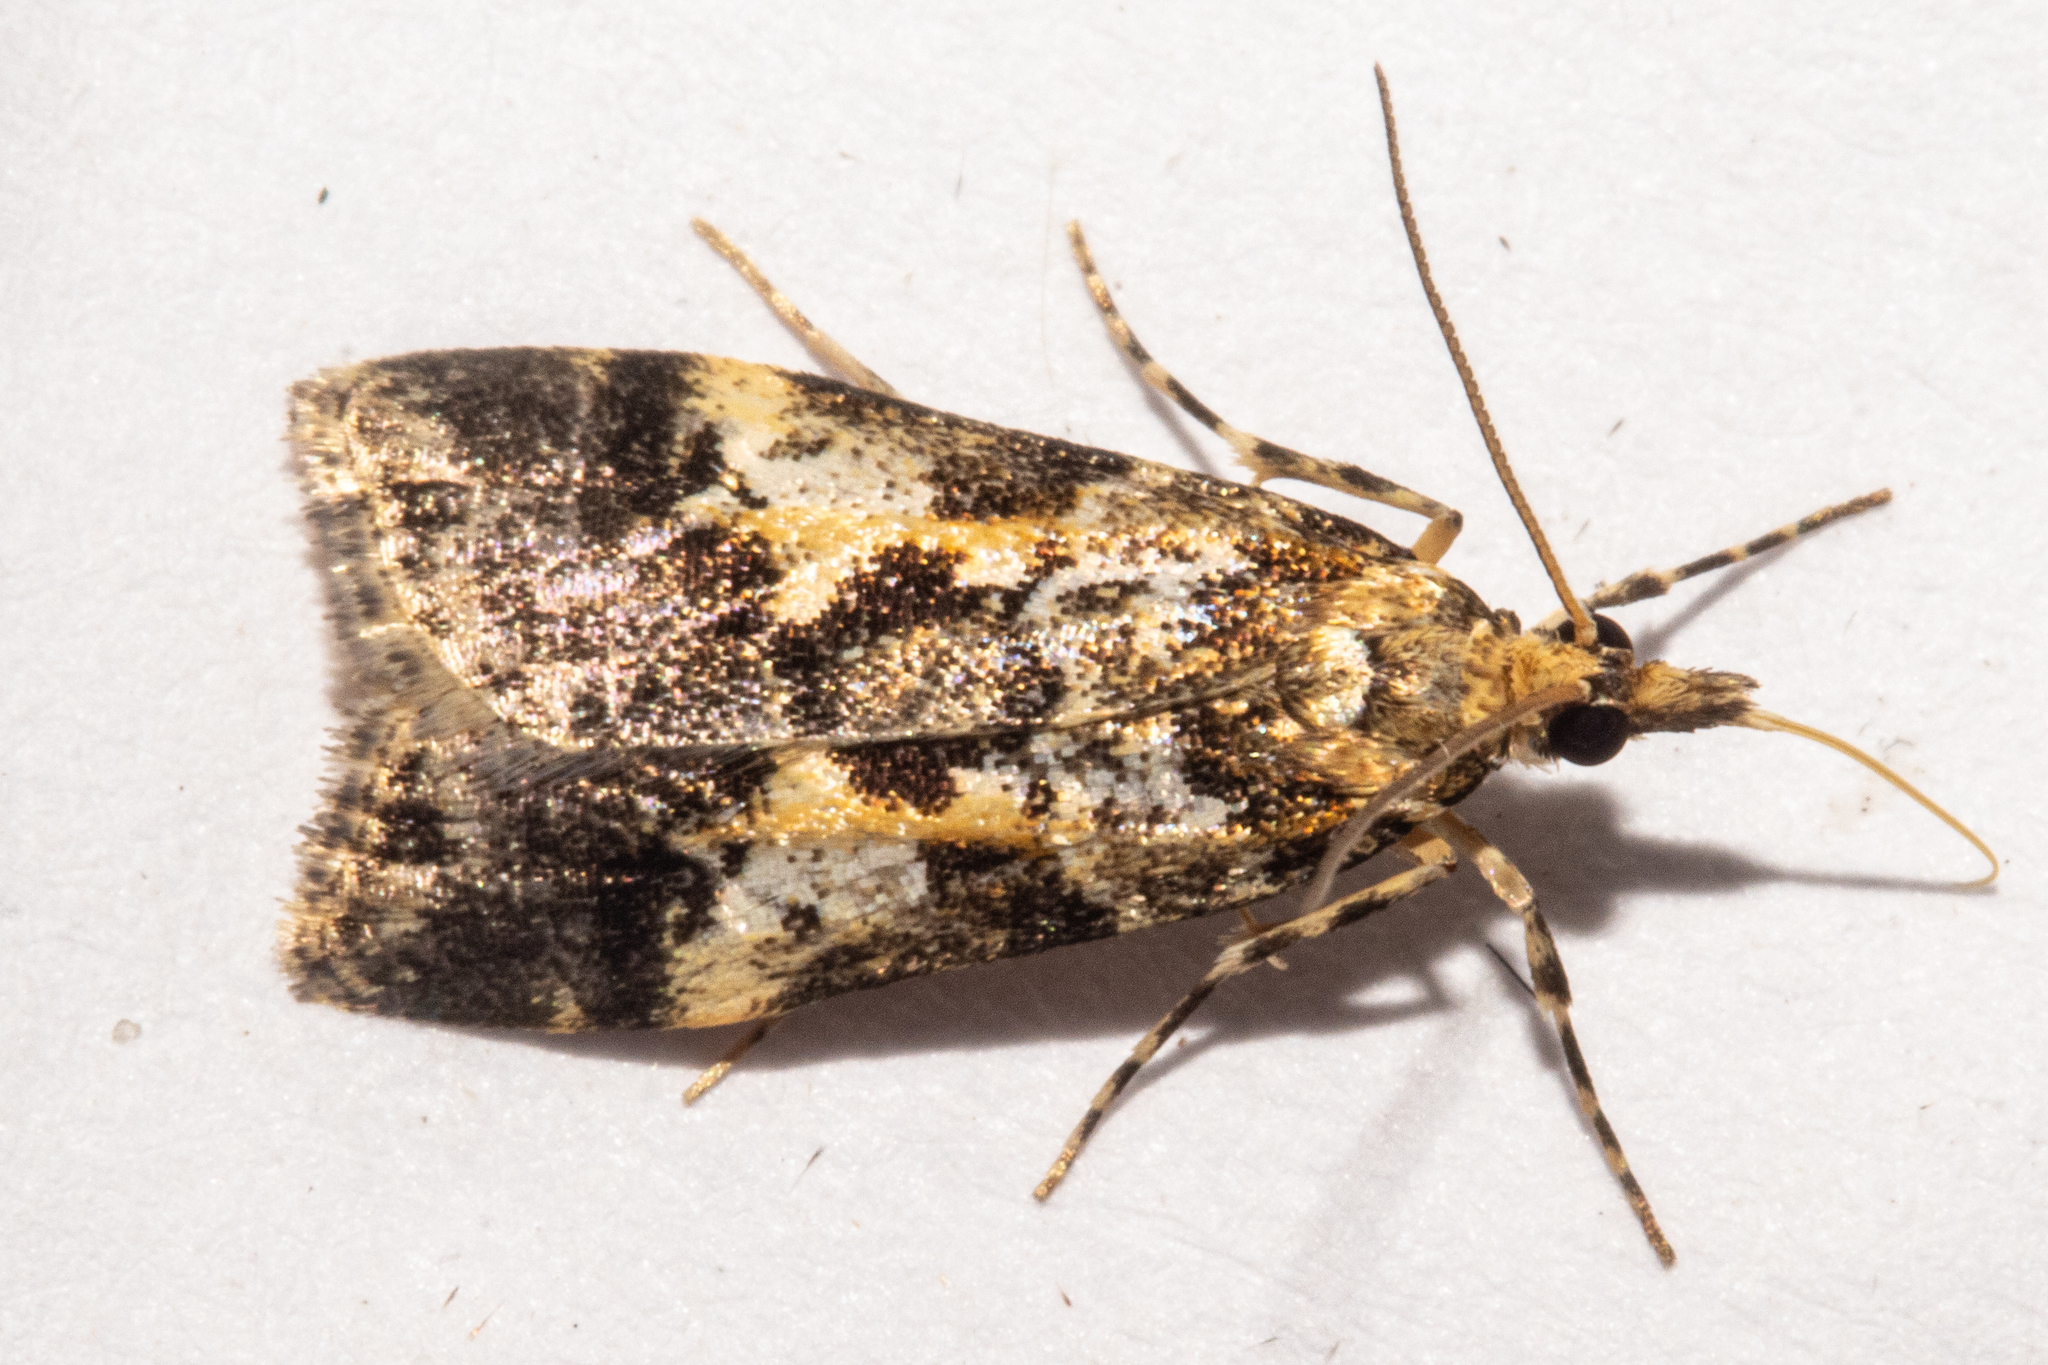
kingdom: Animalia
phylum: Arthropoda
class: Insecta
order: Lepidoptera
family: Crambidae
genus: Eudonia
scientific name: Eudonia characta
